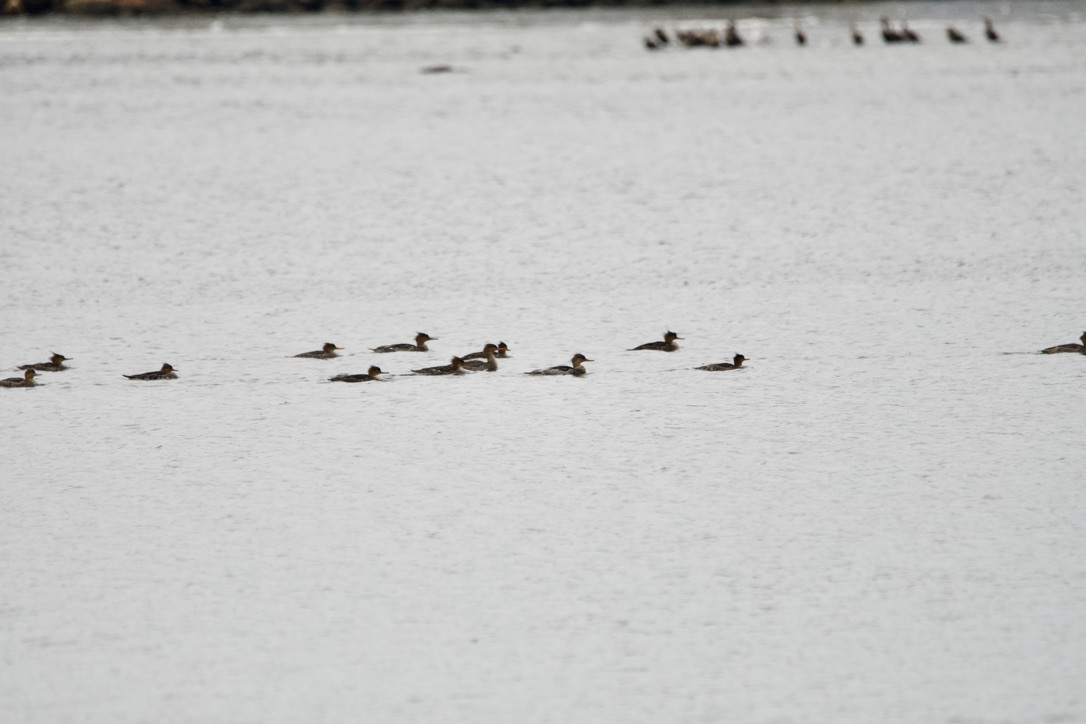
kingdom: Animalia
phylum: Chordata
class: Aves
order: Anseriformes
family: Anatidae
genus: Mergus
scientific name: Mergus serrator
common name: Red-breasted merganser
